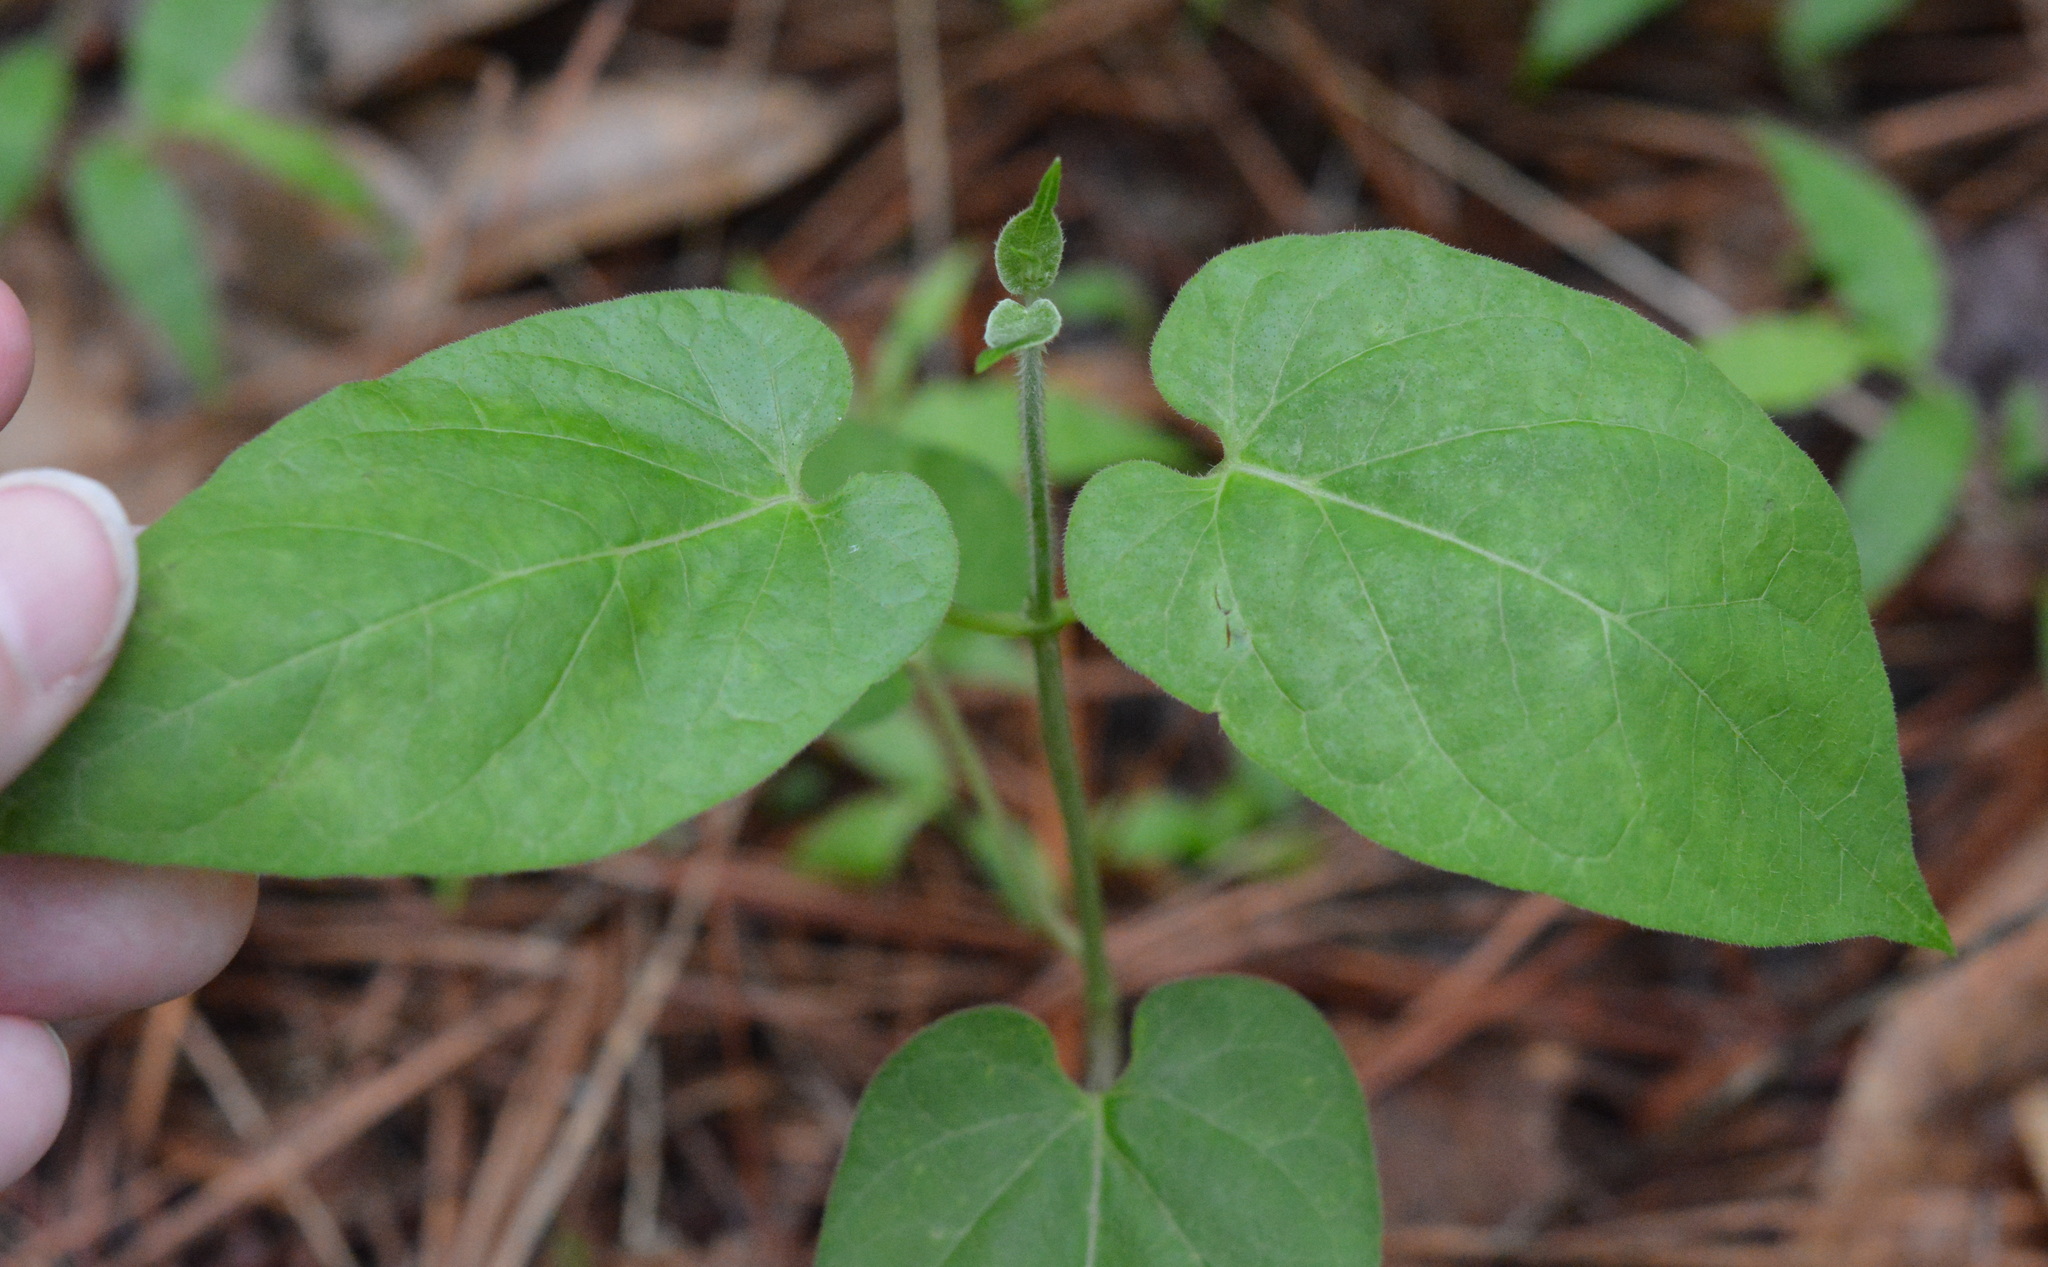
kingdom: Plantae
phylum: Tracheophyta
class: Magnoliopsida
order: Gentianales
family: Apocynaceae
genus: Gonolobus
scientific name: Gonolobus suberosus
